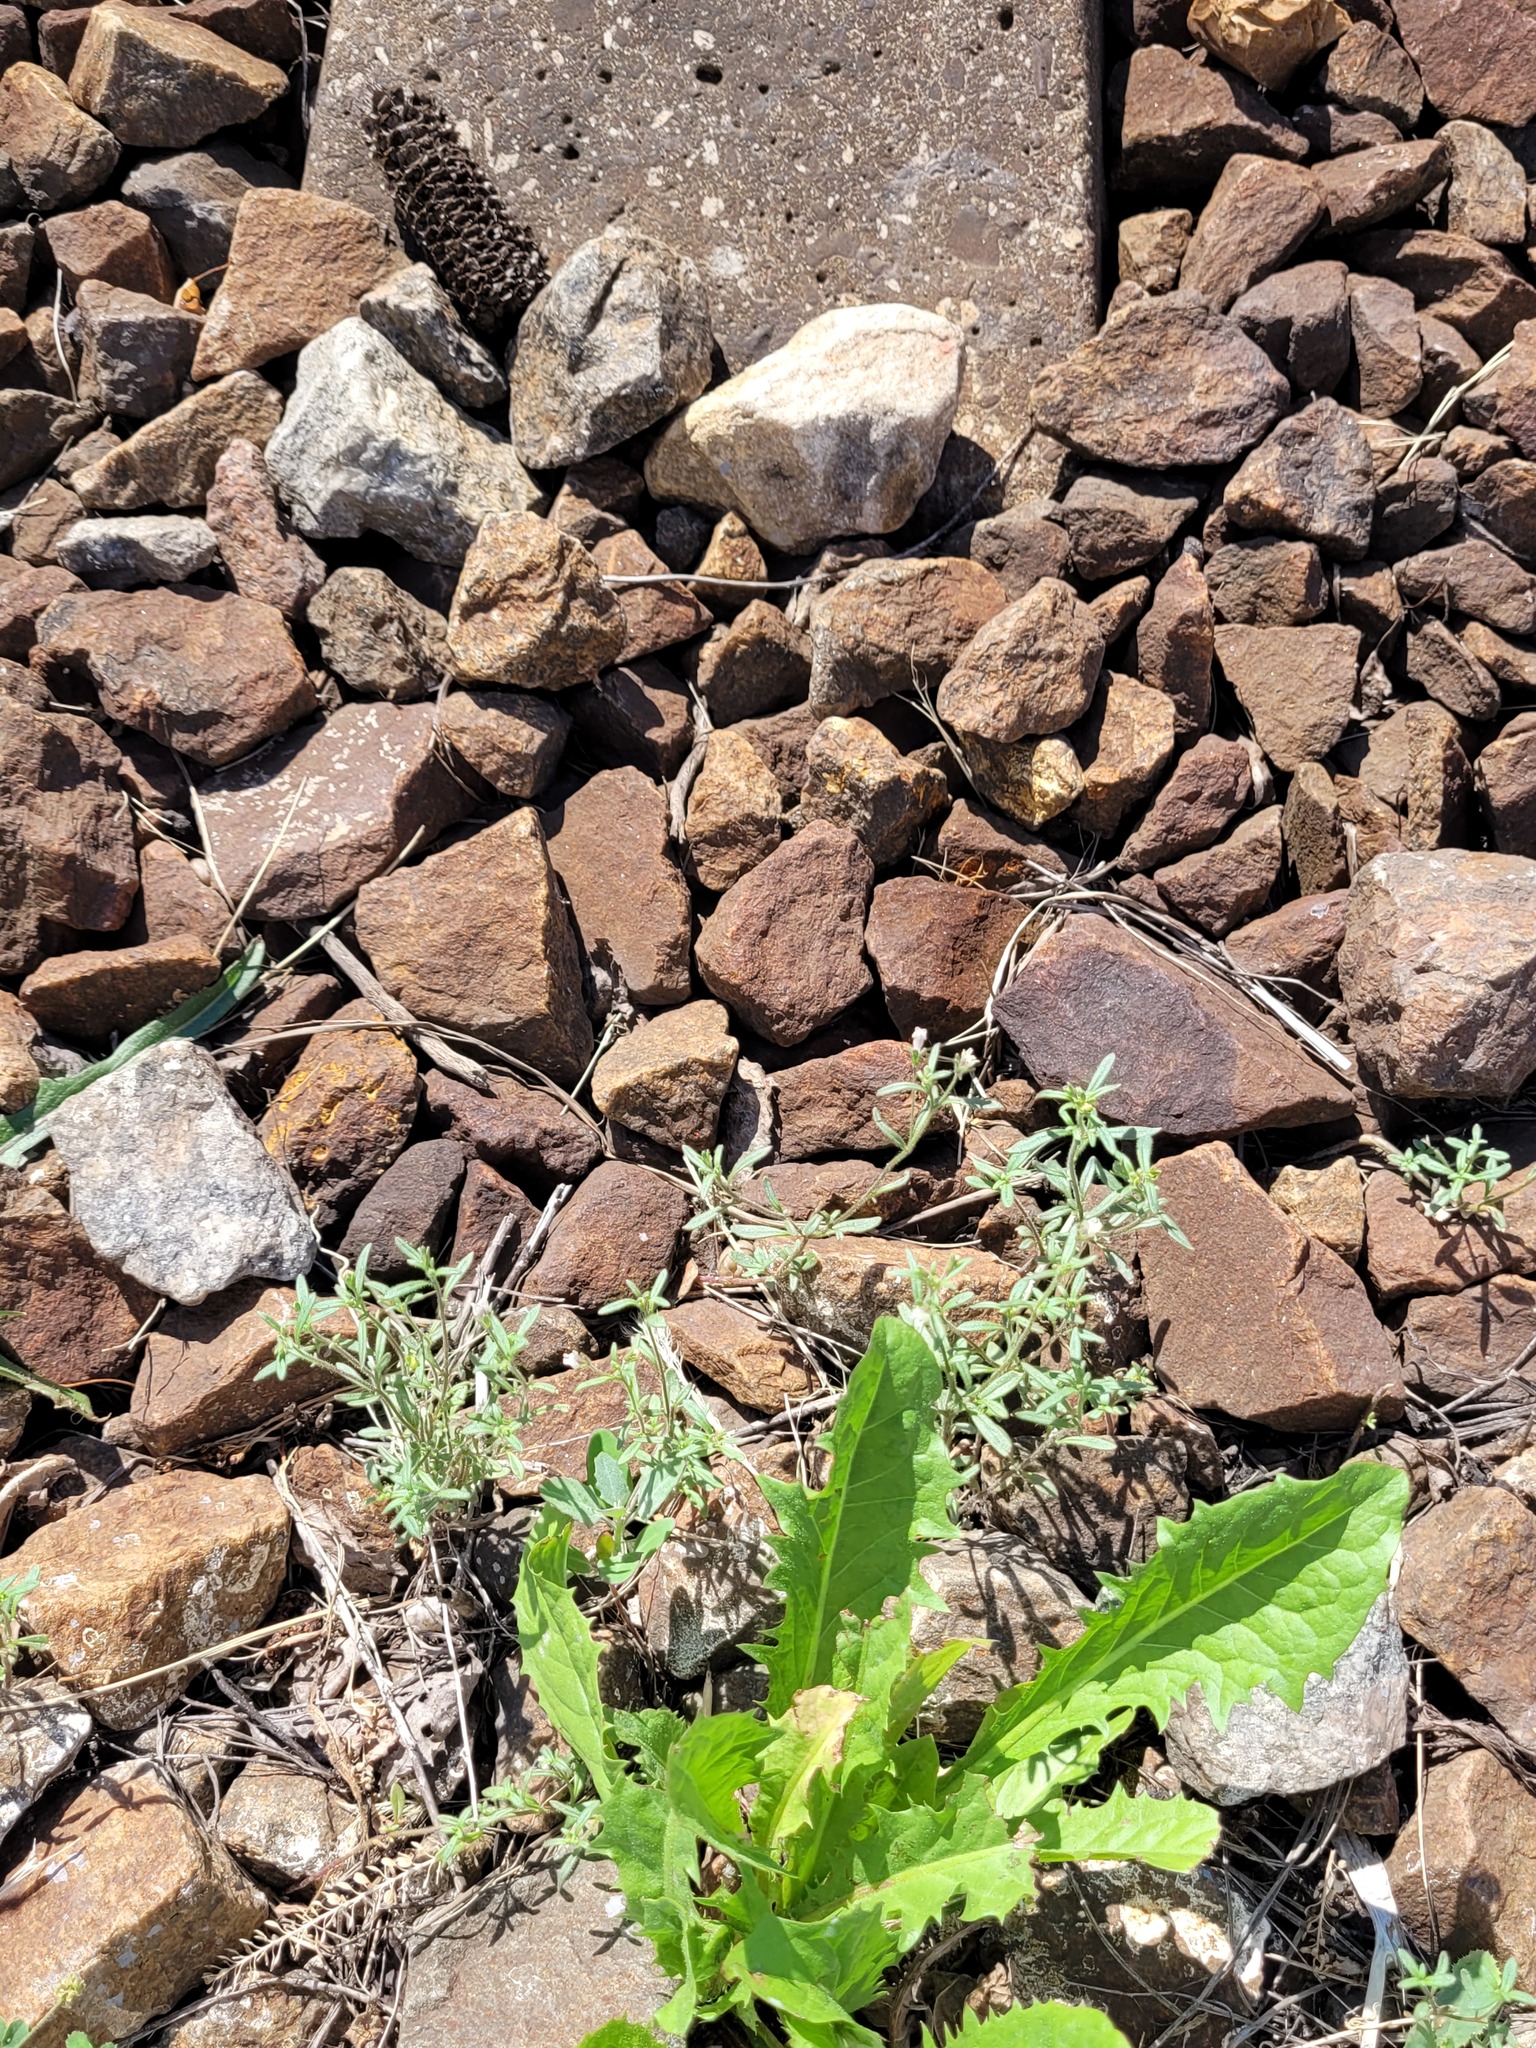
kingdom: Plantae
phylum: Tracheophyta
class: Magnoliopsida
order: Lamiales
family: Plantaginaceae
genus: Chaenorhinum
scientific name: Chaenorhinum minus
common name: Dwarf snapdragon
